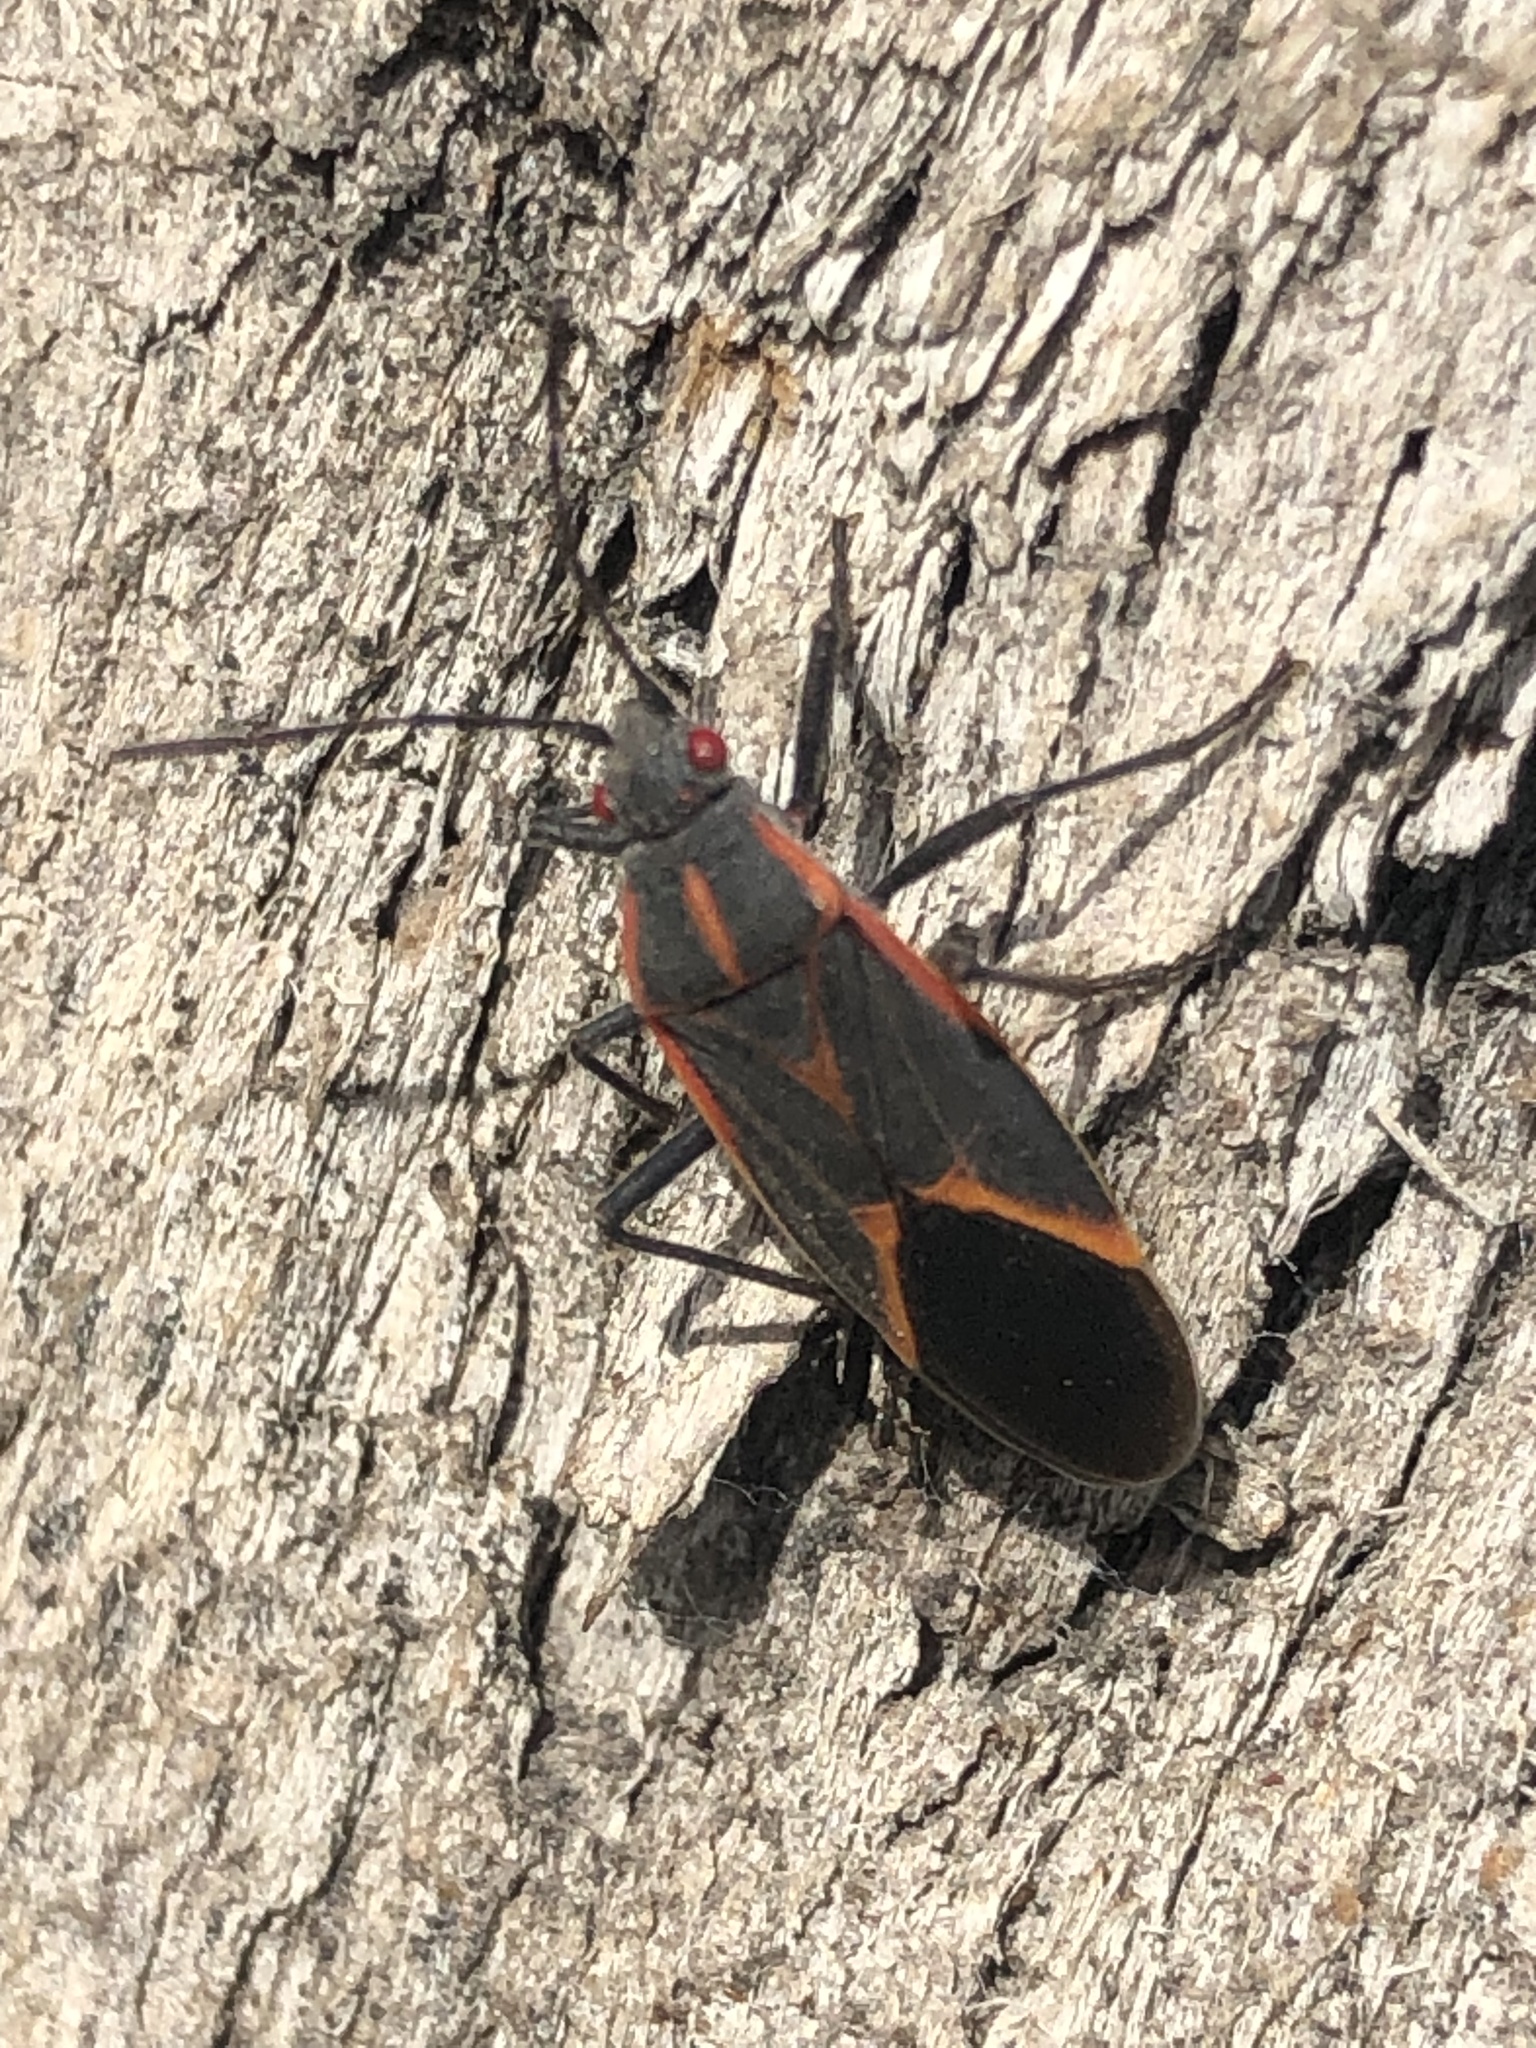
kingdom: Animalia
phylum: Arthropoda
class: Insecta
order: Hemiptera
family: Rhopalidae
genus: Boisea
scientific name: Boisea trivittata
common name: Boxelder bug
